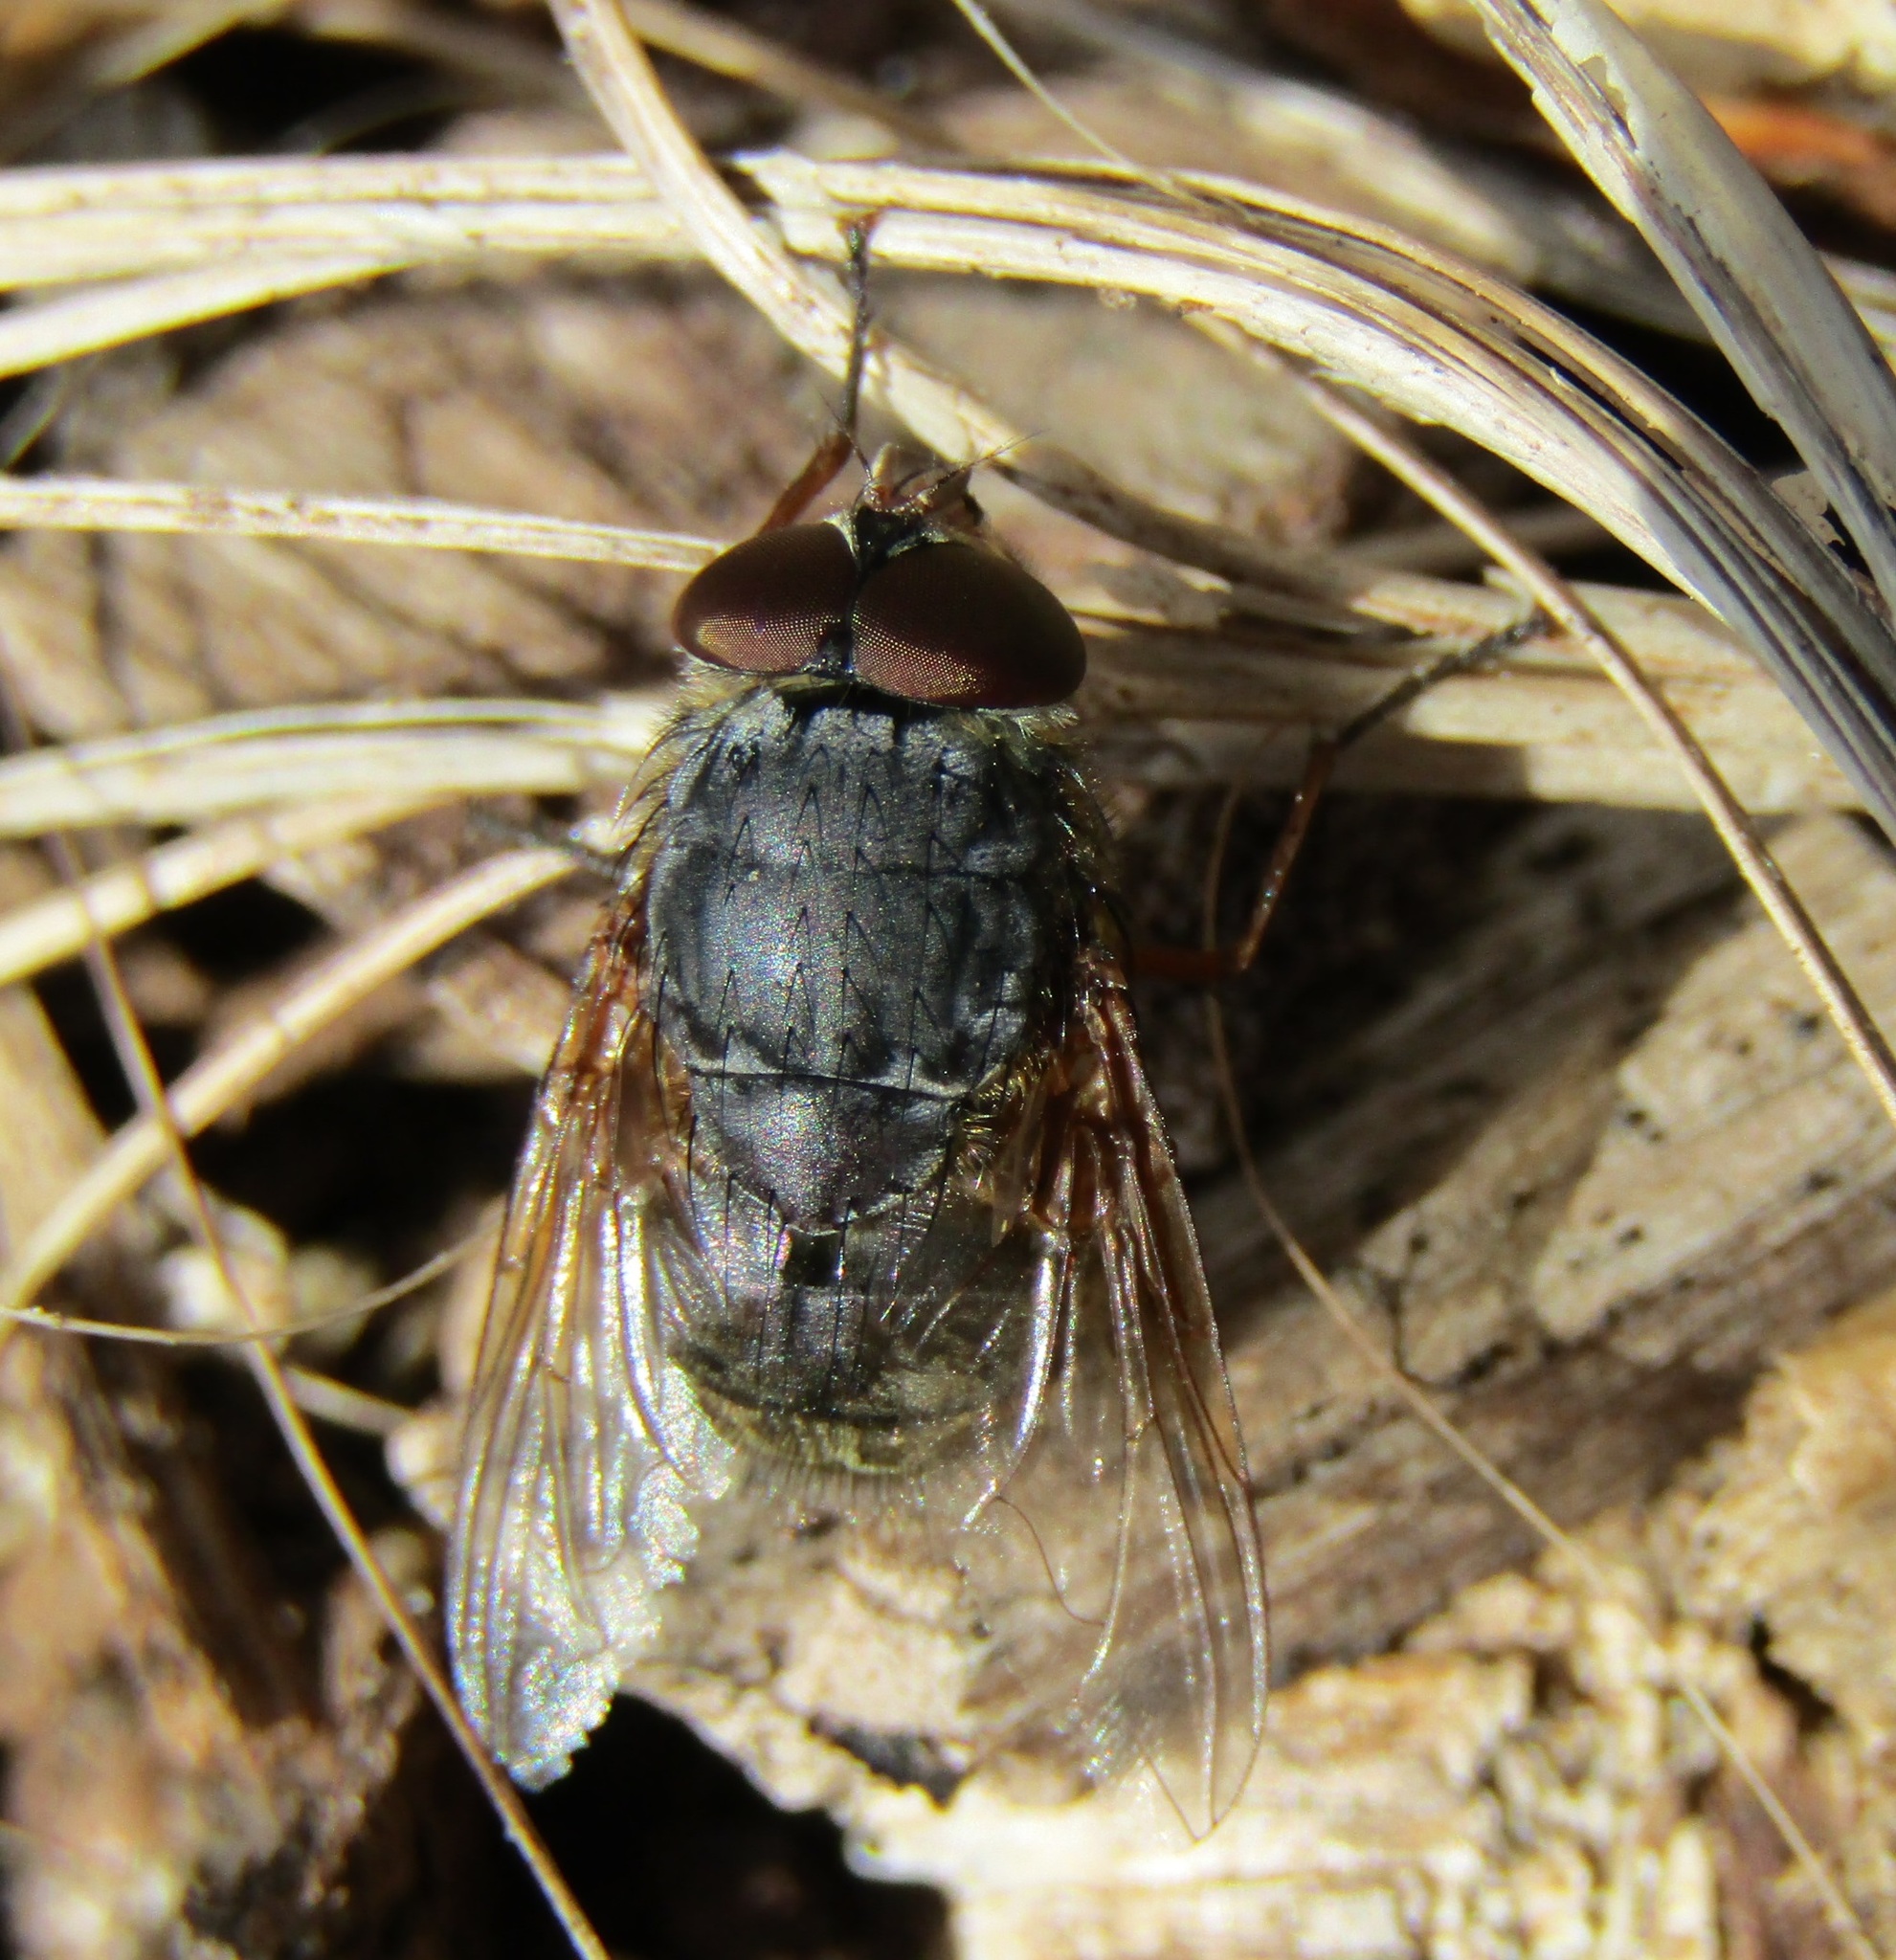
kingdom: Animalia
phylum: Arthropoda
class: Insecta
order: Diptera
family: Calliphoridae
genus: Calliphora
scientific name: Calliphora stygia
